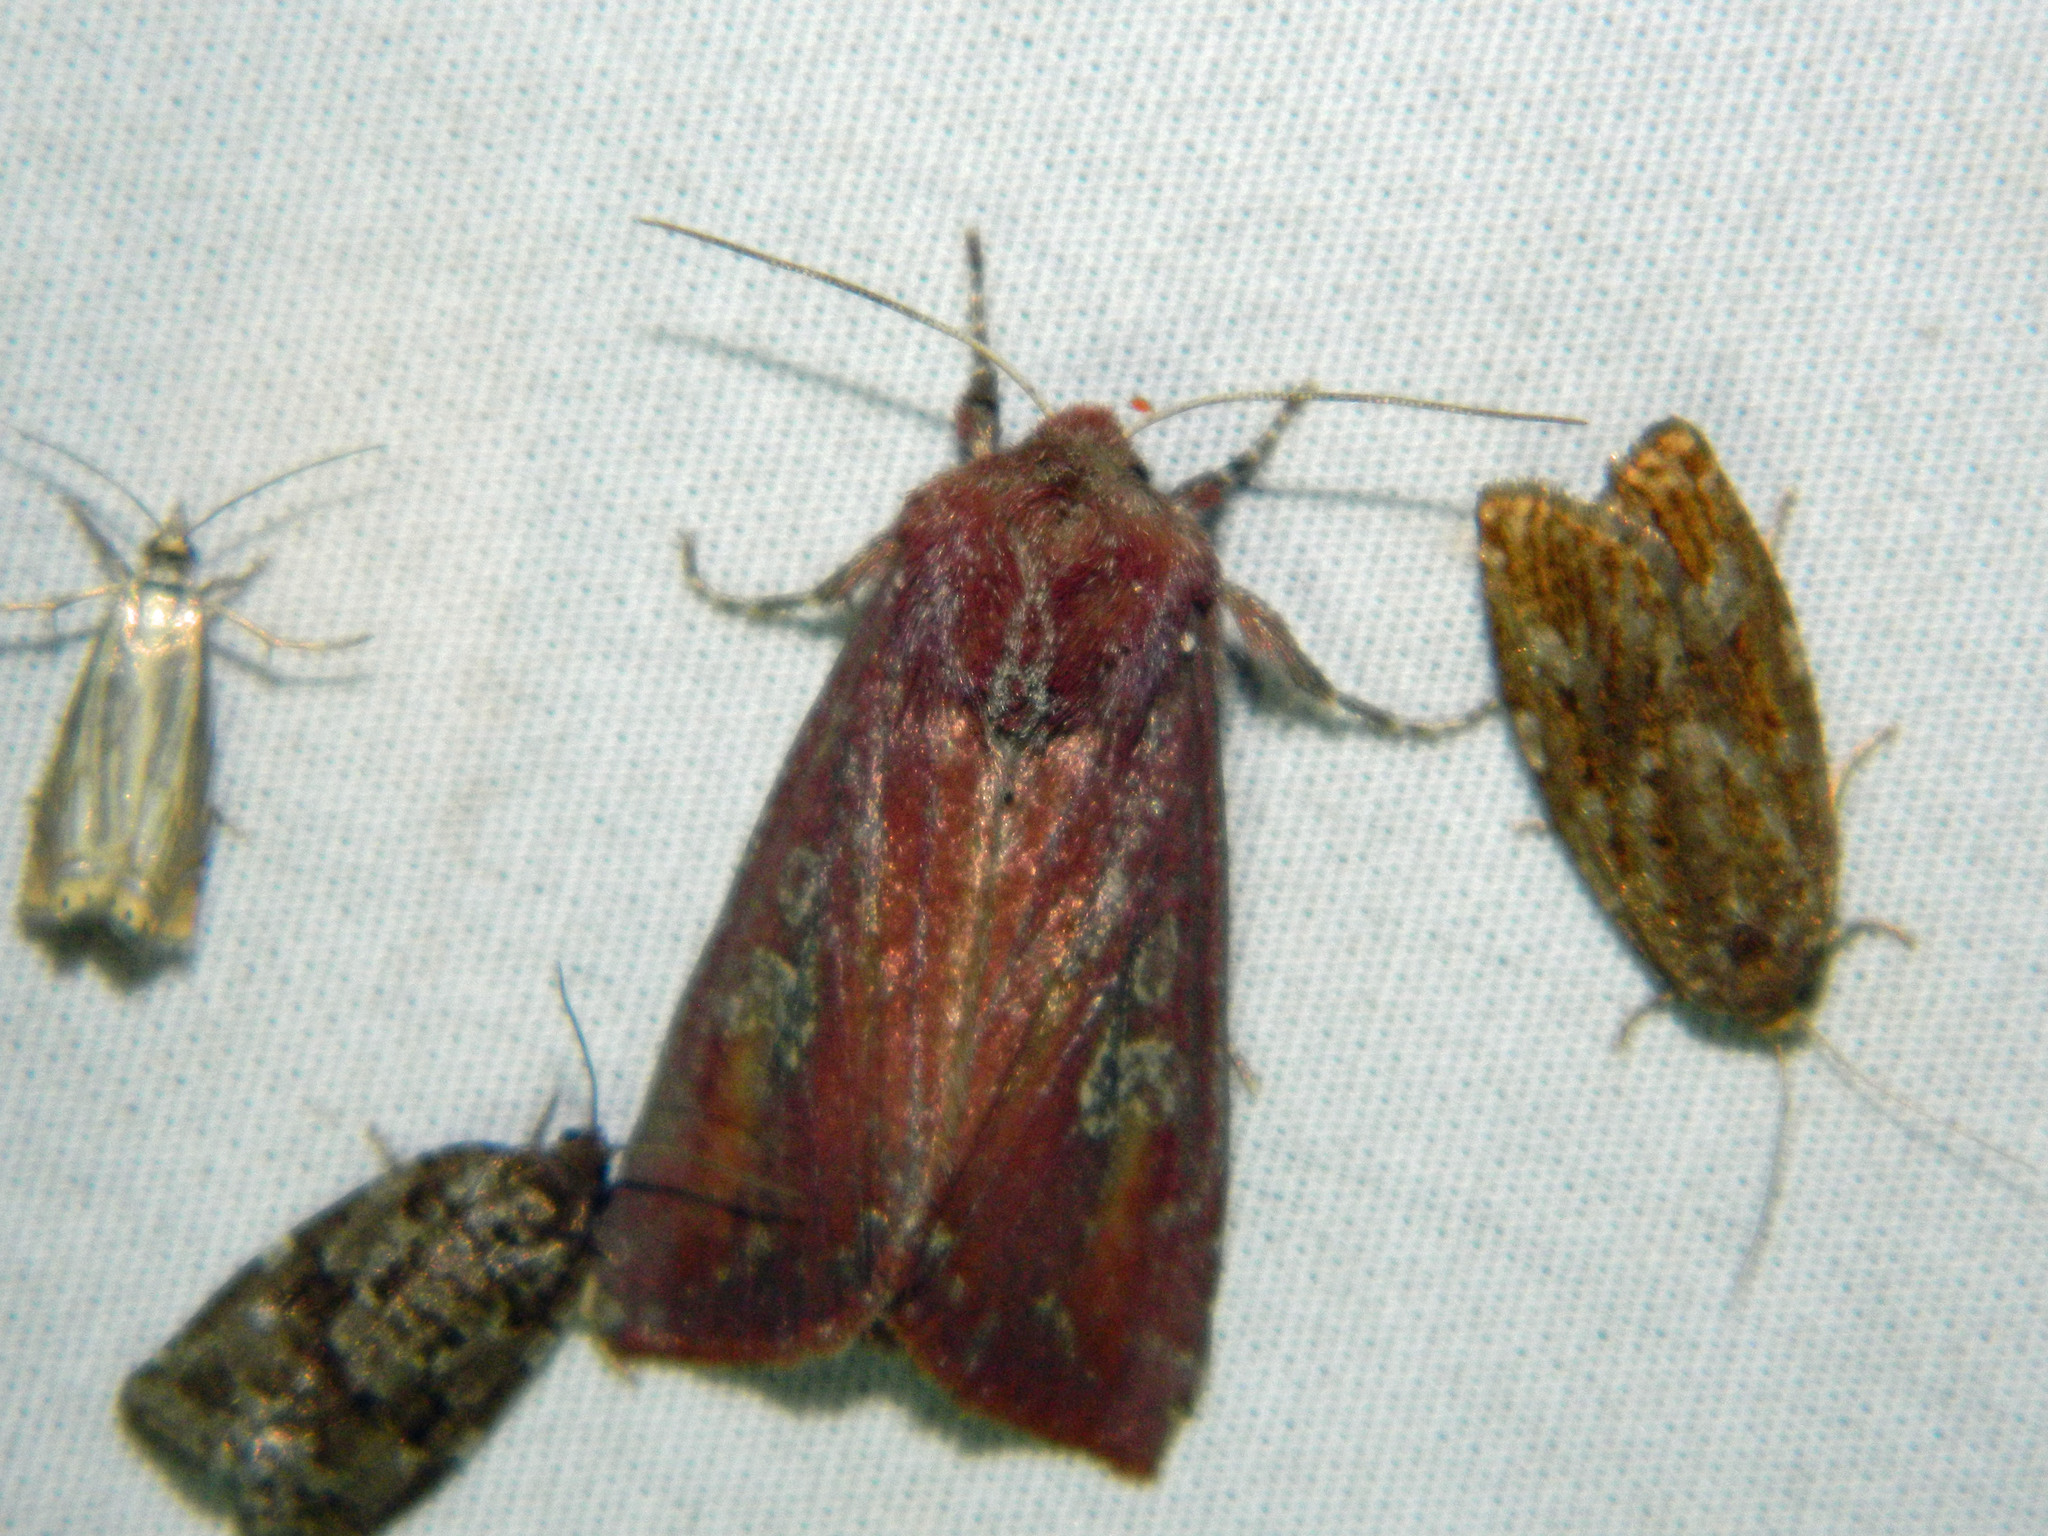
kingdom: Animalia
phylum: Arthropoda
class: Insecta
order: Lepidoptera
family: Noctuidae
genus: Melanchra
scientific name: Melanchra picta
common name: Zebra caterpillar
